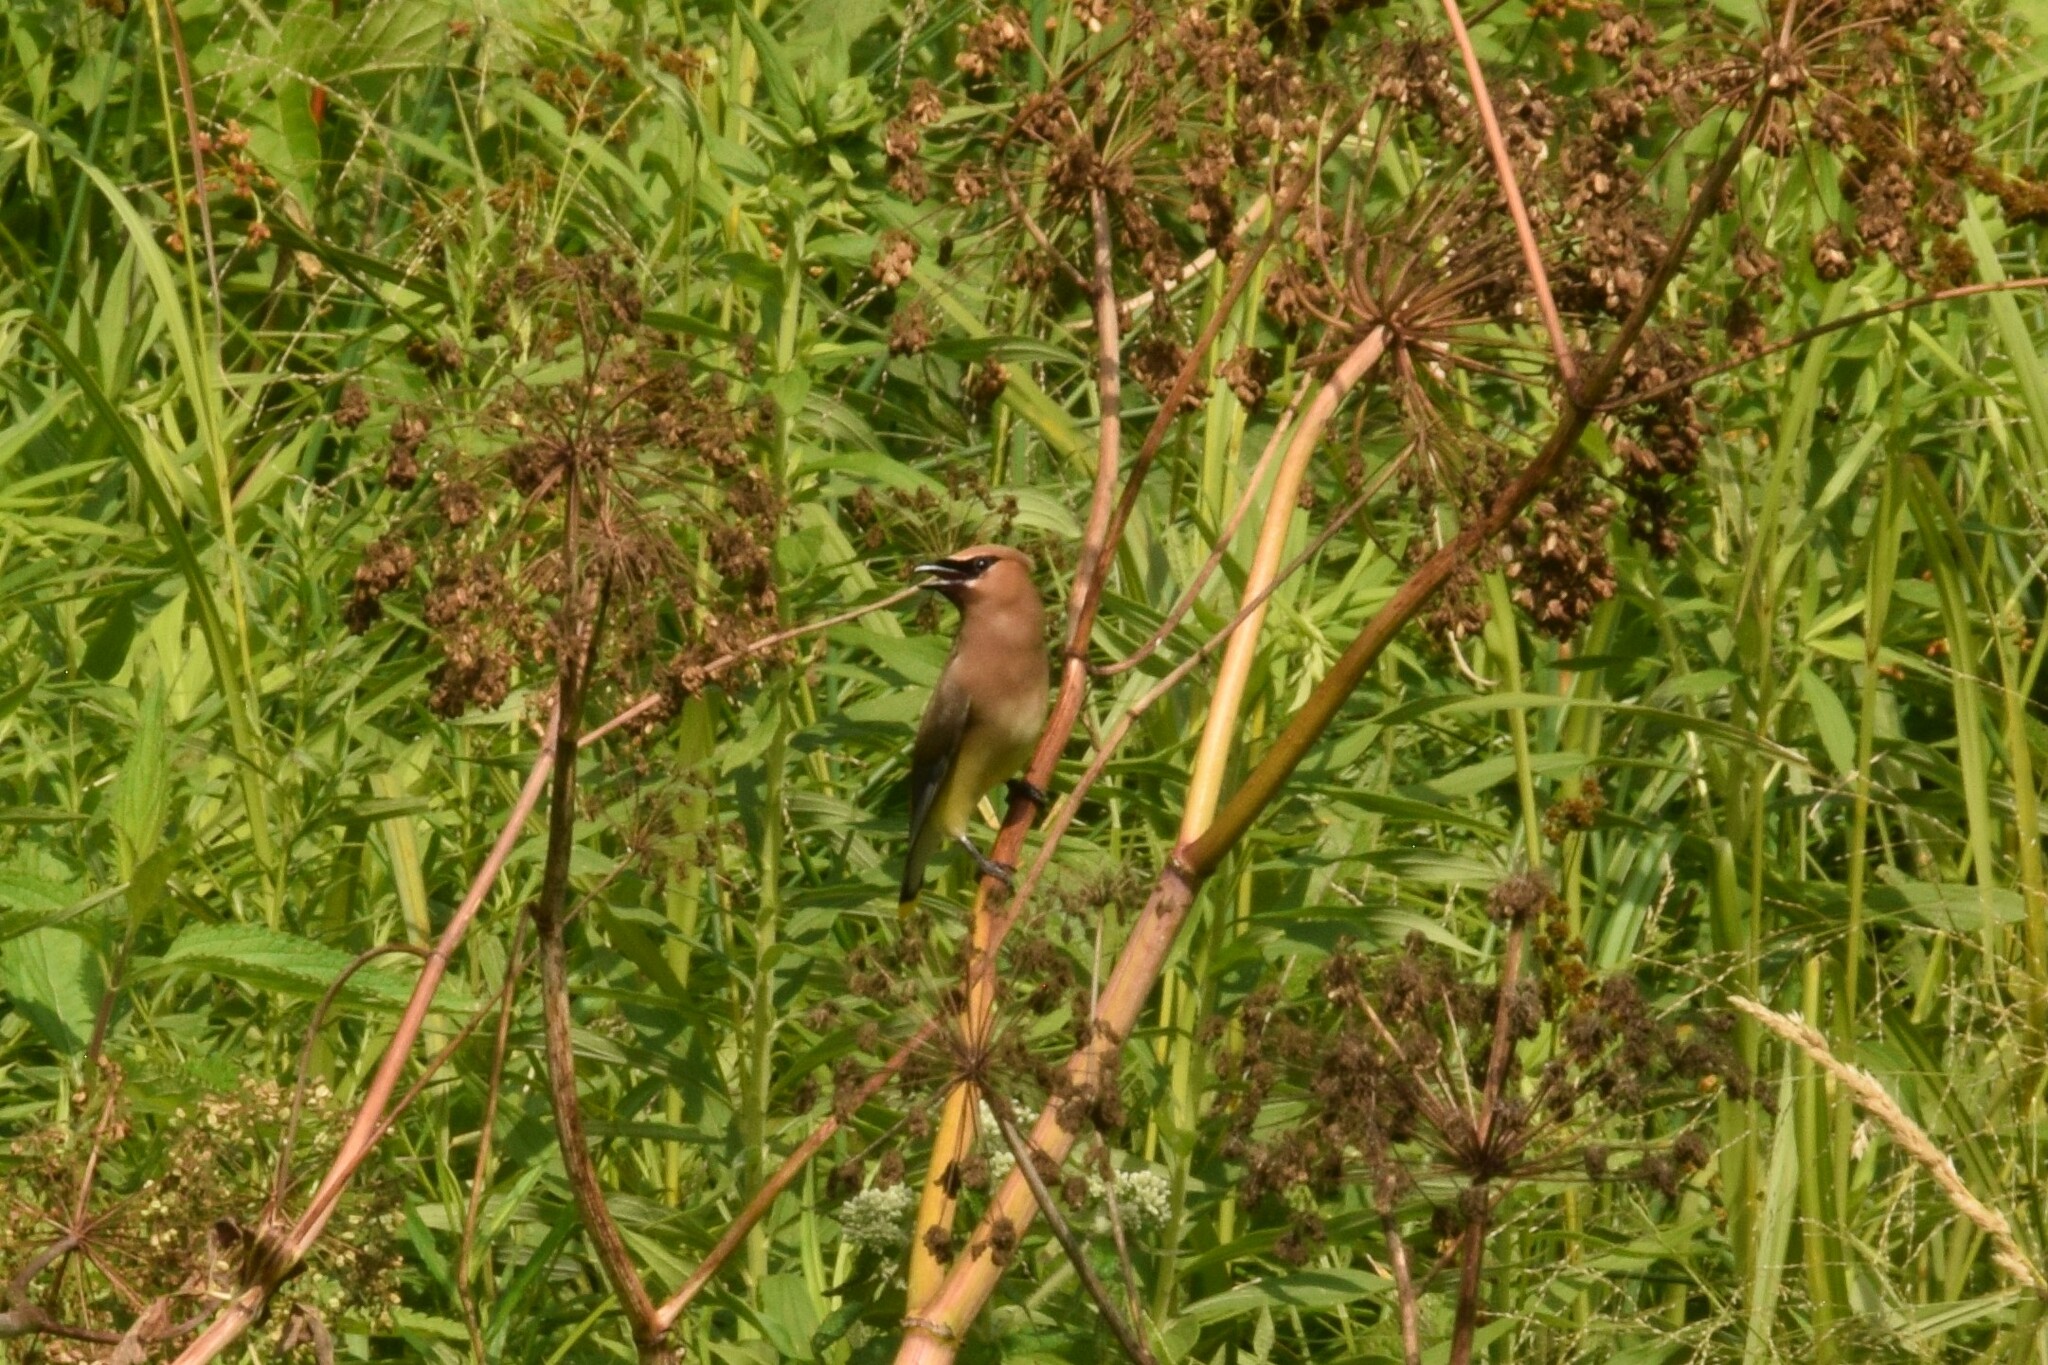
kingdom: Animalia
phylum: Chordata
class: Aves
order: Passeriformes
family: Bombycillidae
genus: Bombycilla
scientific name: Bombycilla cedrorum
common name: Cedar waxwing
